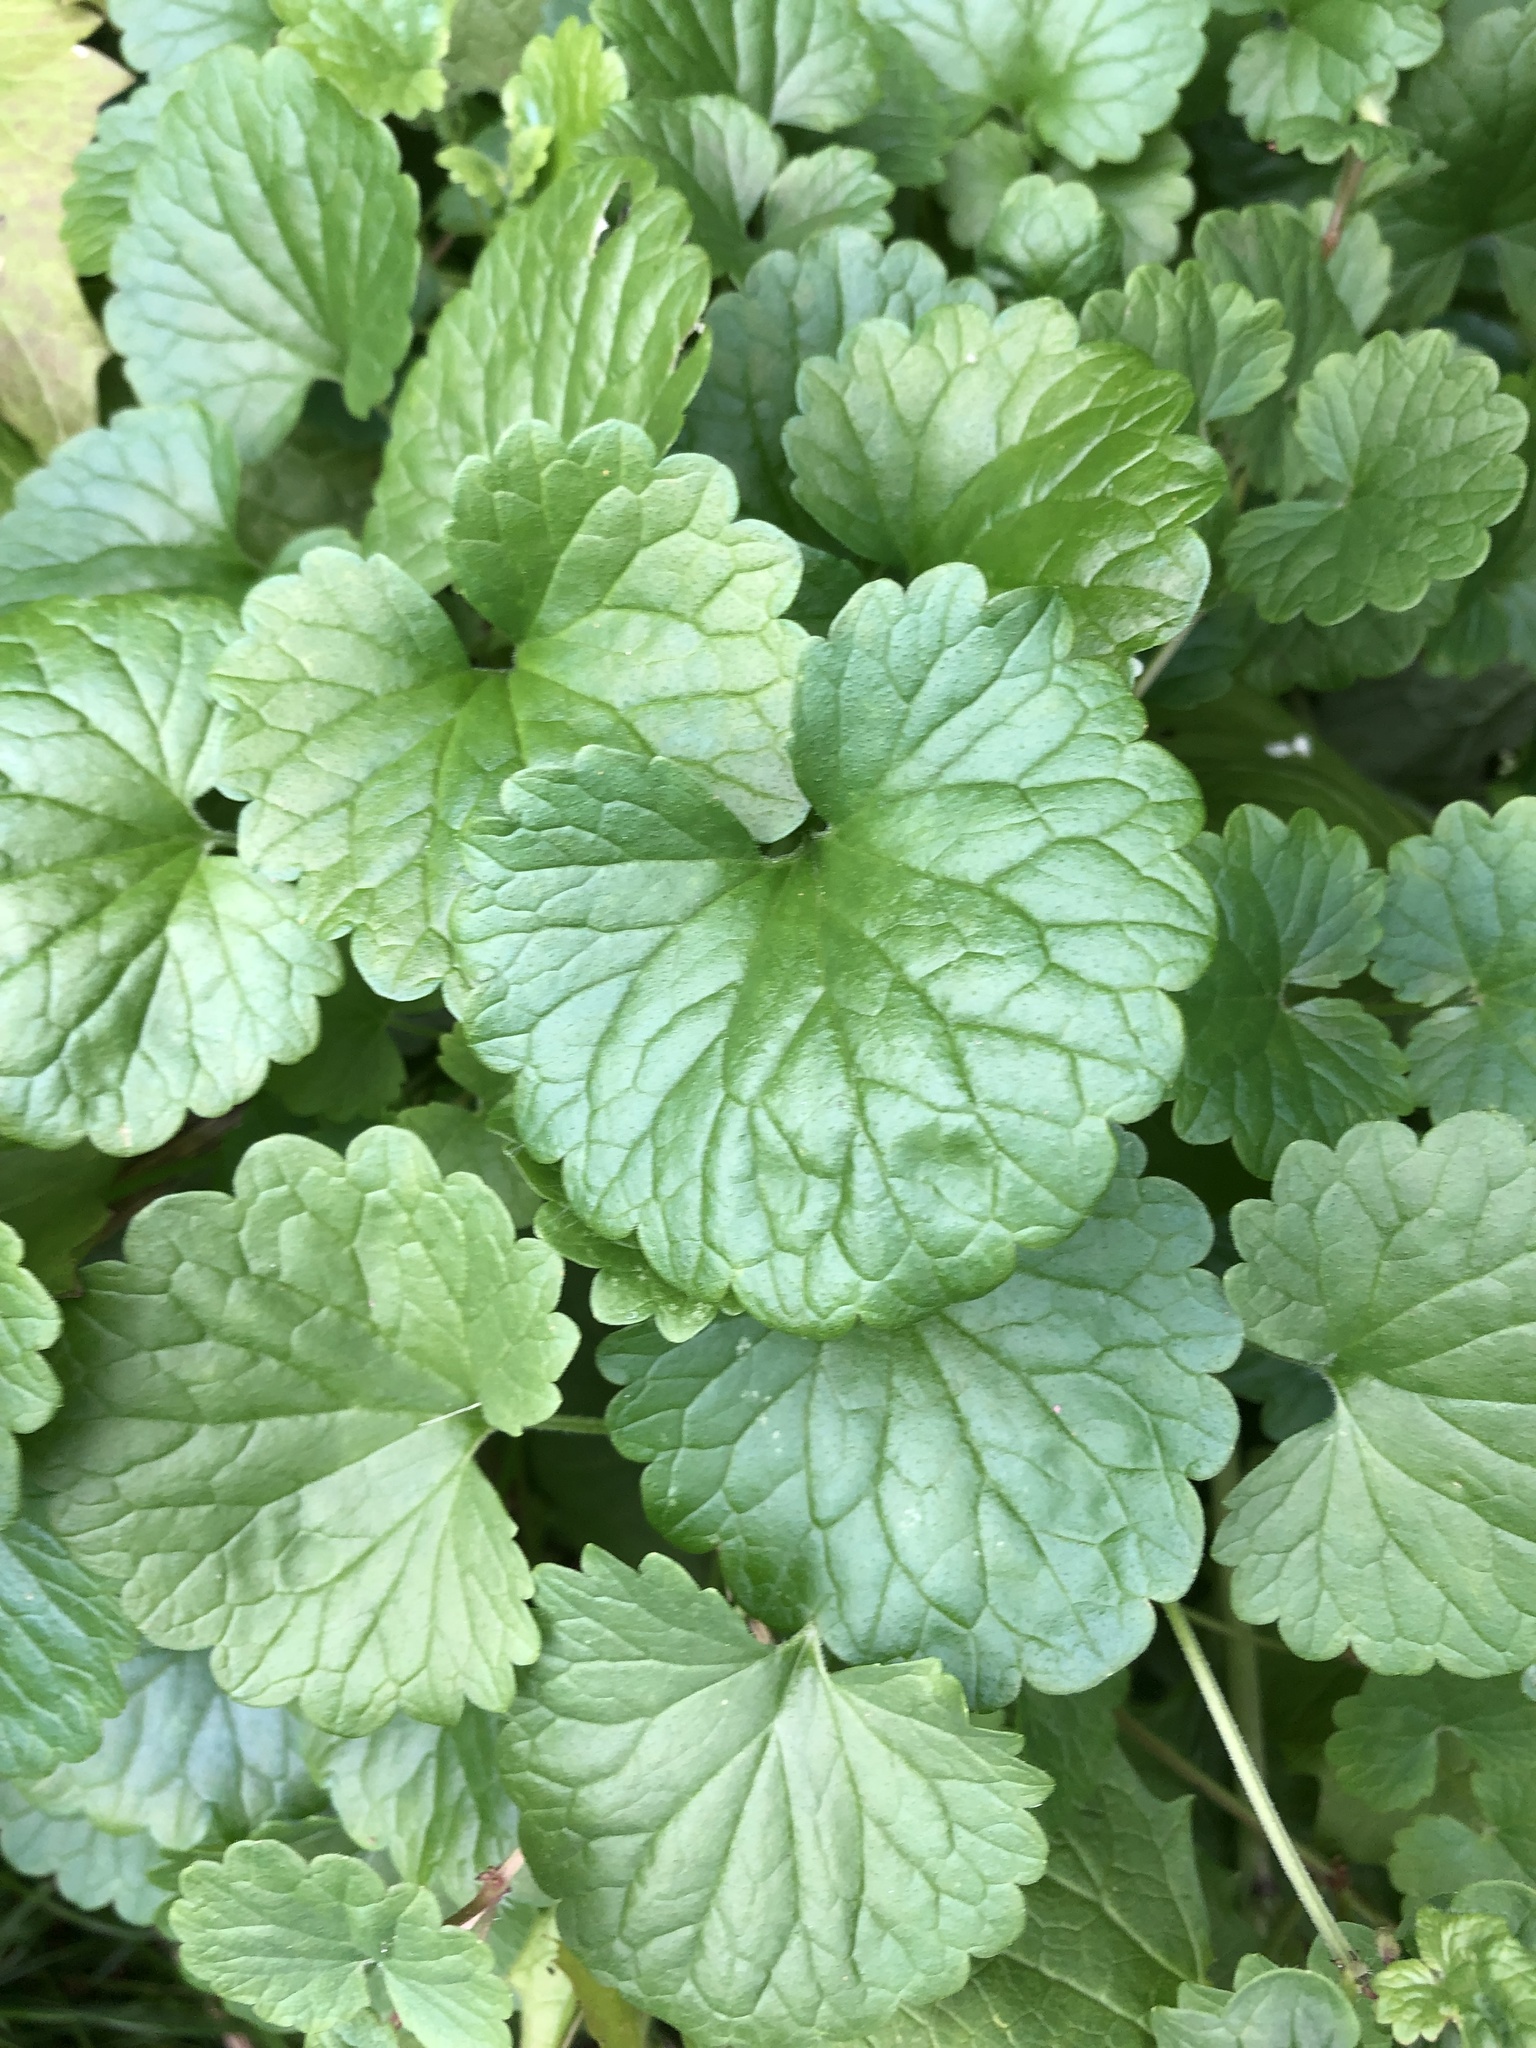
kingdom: Plantae
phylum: Tracheophyta
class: Magnoliopsida
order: Lamiales
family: Lamiaceae
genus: Glechoma
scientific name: Glechoma hederacea
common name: Ground ivy
